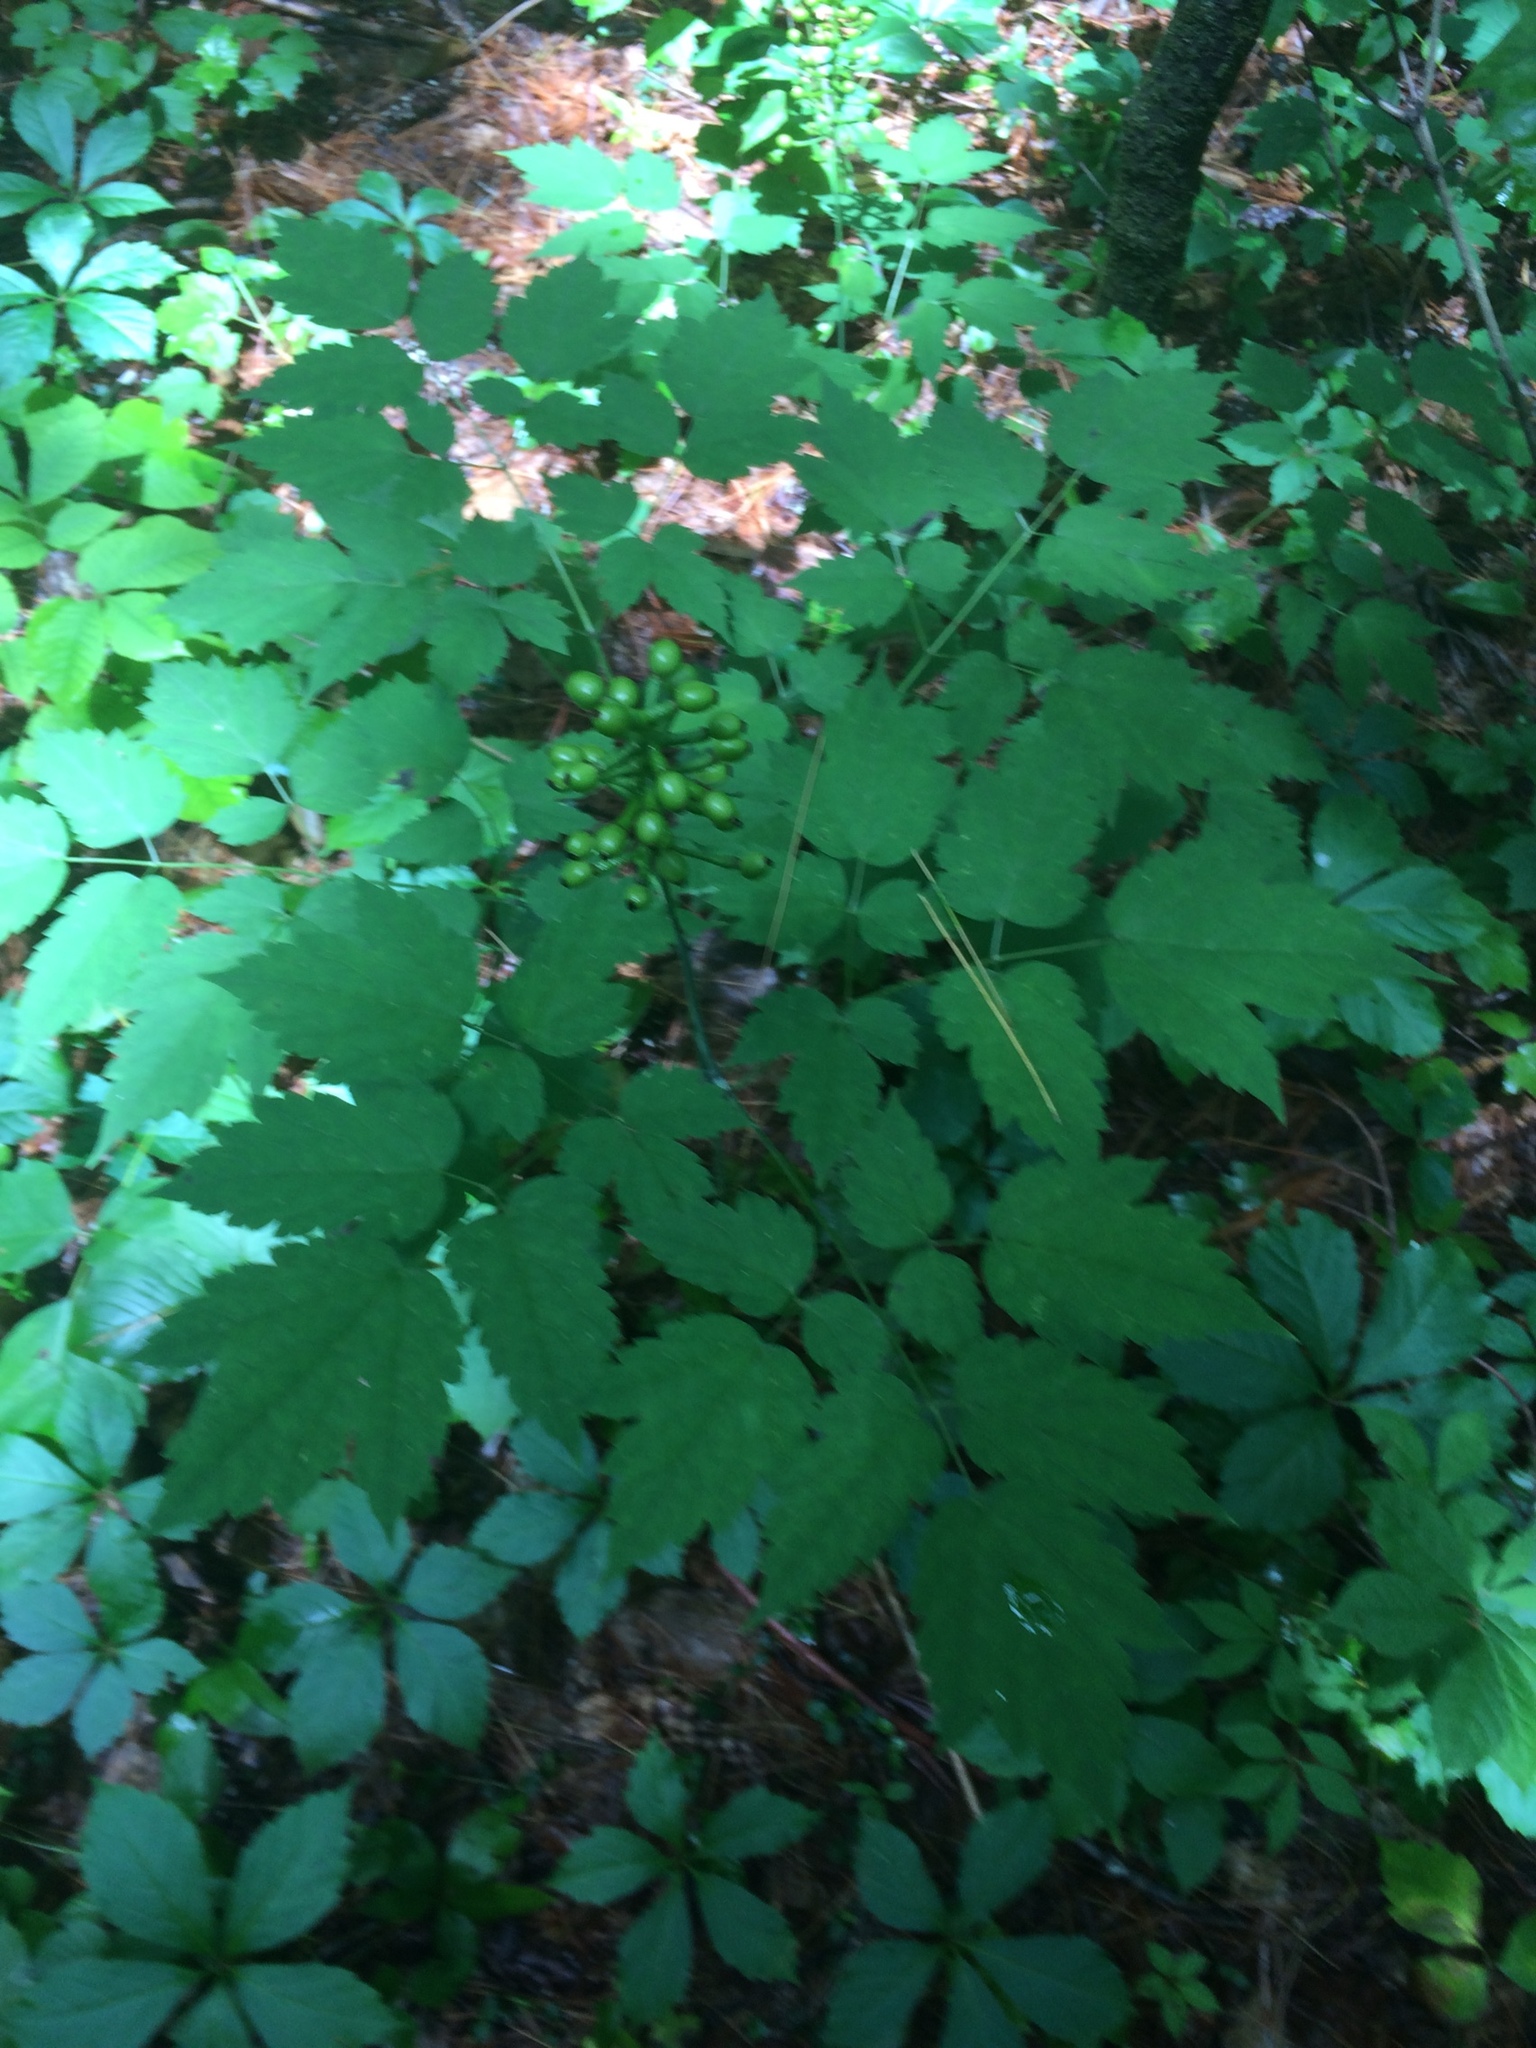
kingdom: Plantae
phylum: Tracheophyta
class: Magnoliopsida
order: Ranunculales
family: Ranunculaceae
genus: Actaea
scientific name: Actaea pachypoda
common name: Doll's-eyes
